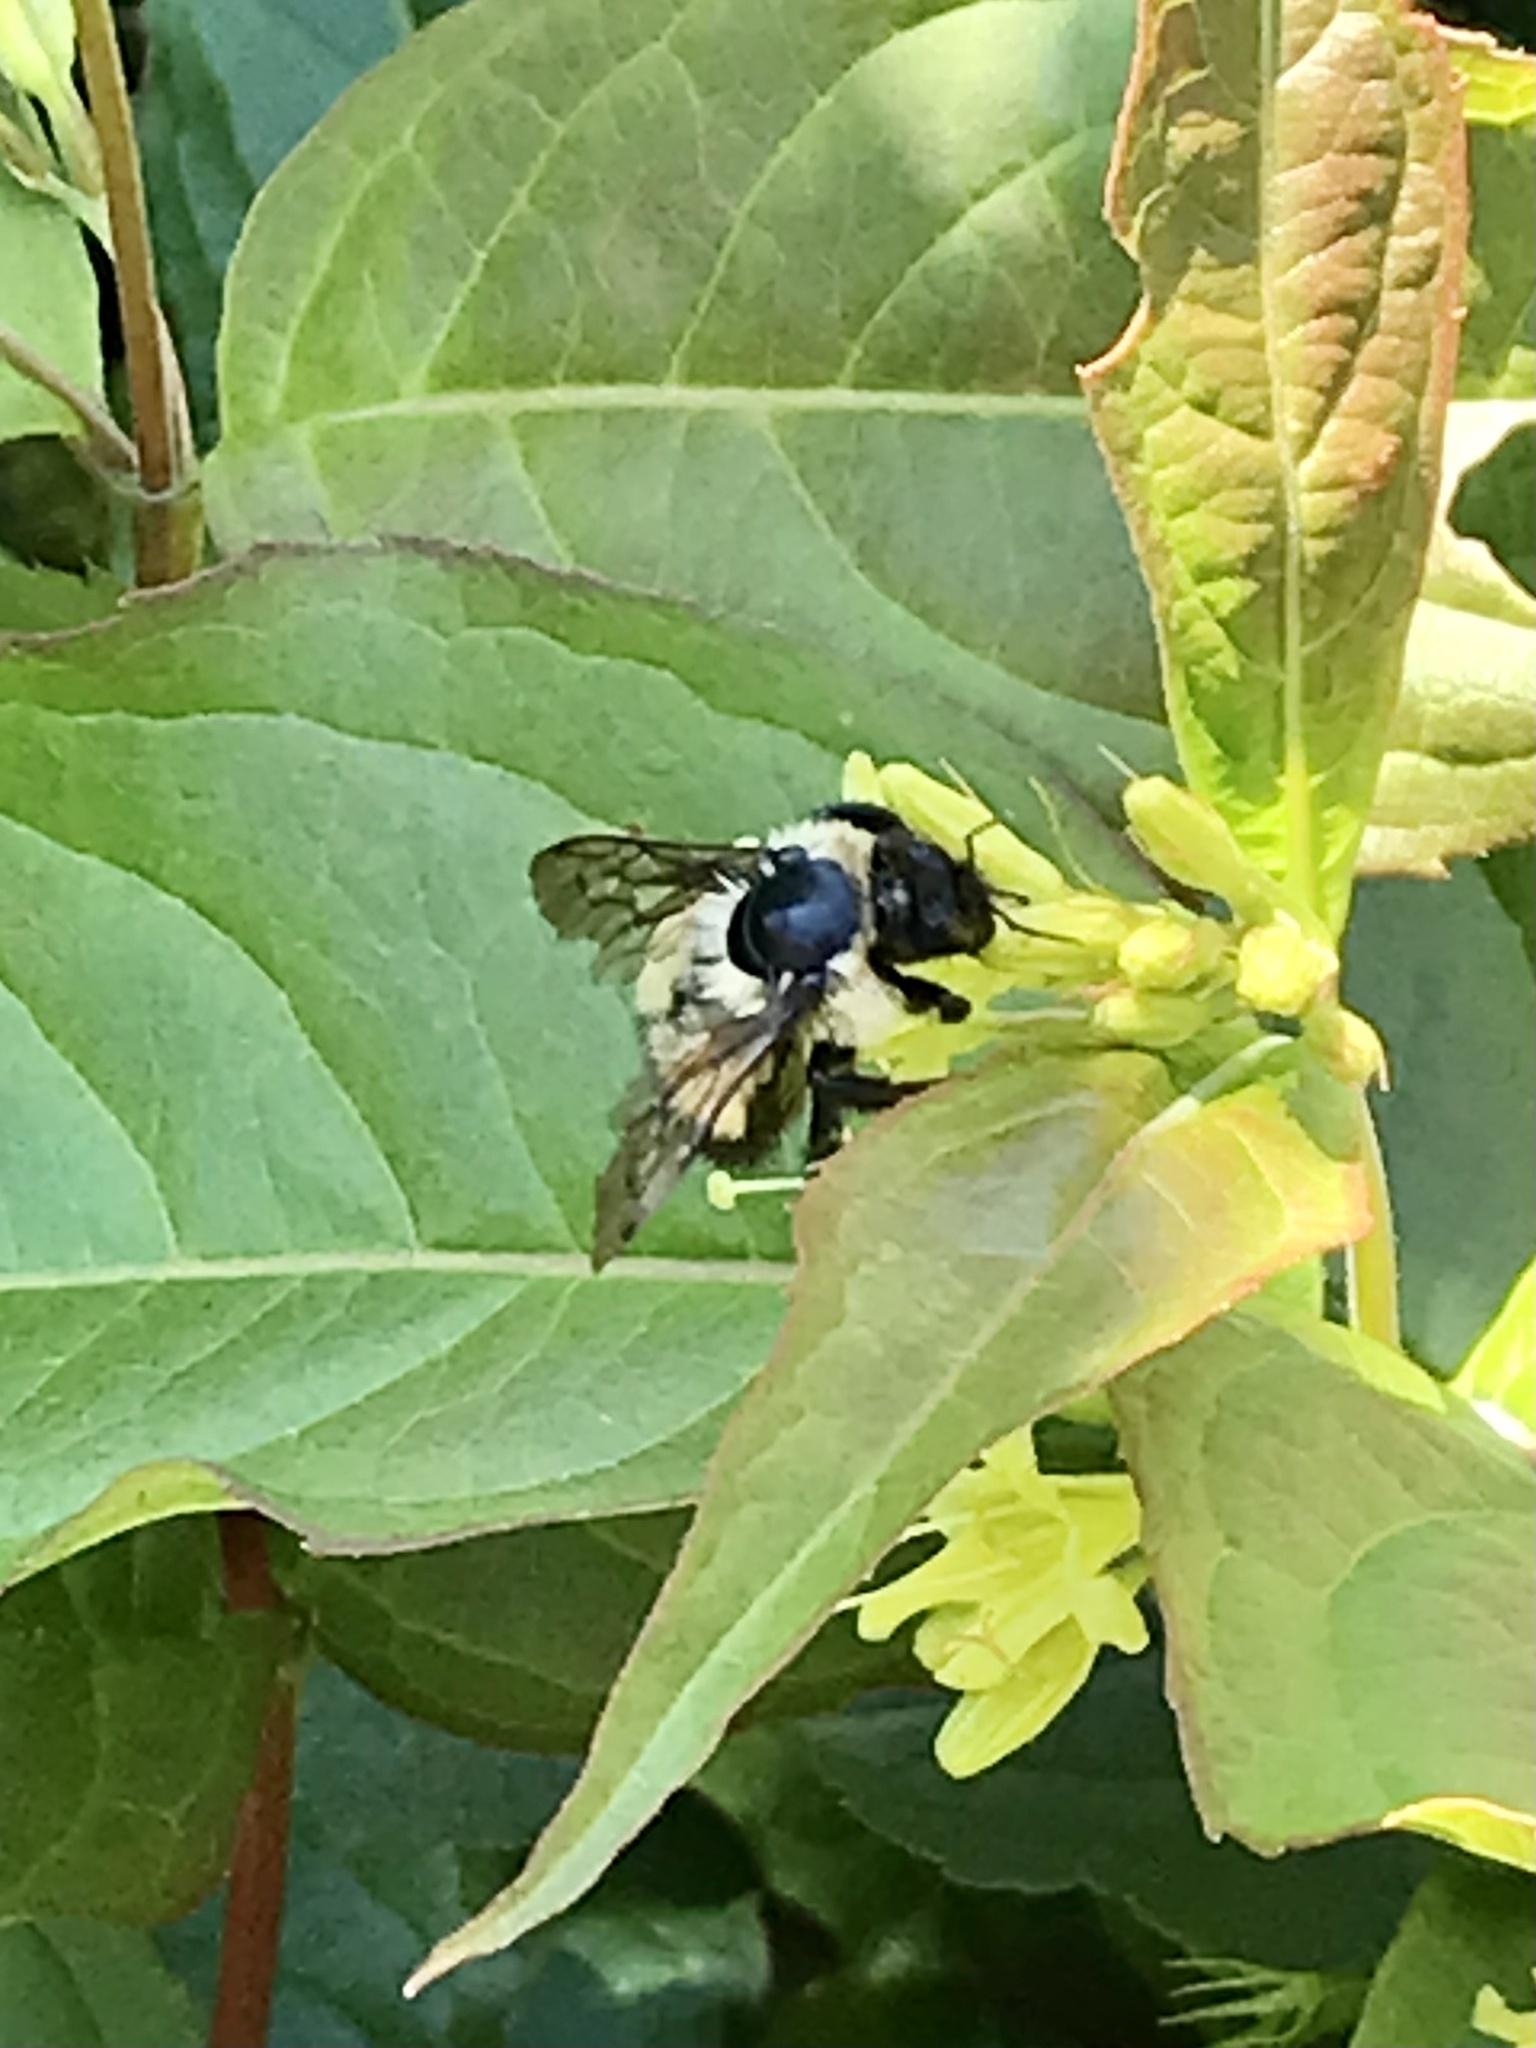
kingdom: Animalia
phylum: Arthropoda
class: Insecta
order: Hymenoptera
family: Apidae
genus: Pyrobombus
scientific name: Pyrobombus
